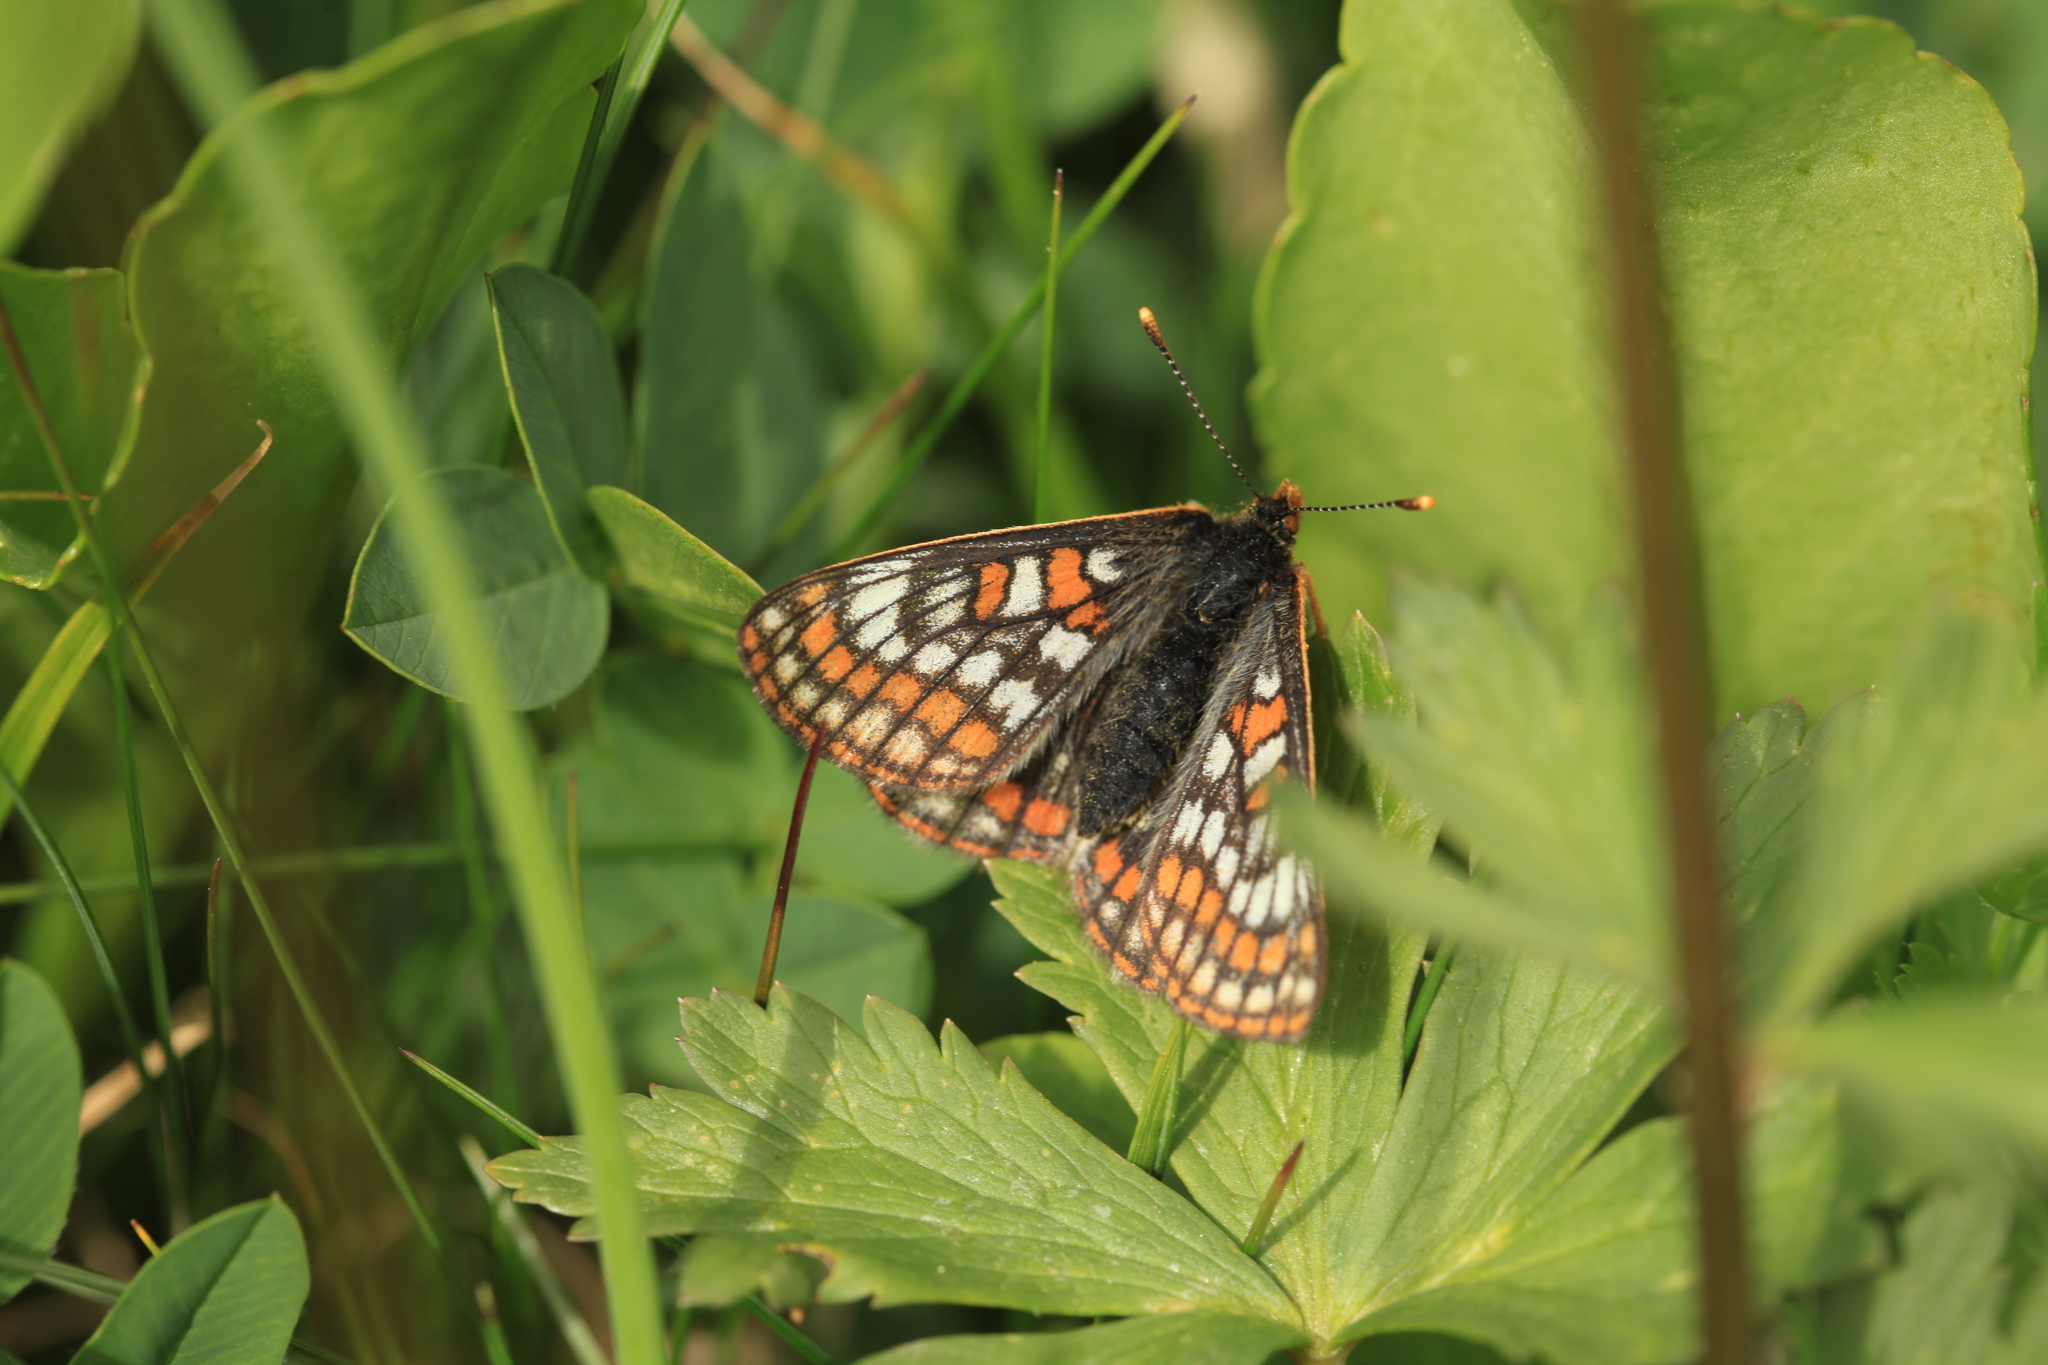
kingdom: Animalia
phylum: Arthropoda
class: Insecta
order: Lepidoptera
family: Nymphalidae
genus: Hypodryas
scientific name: Hypodryas intermedia
